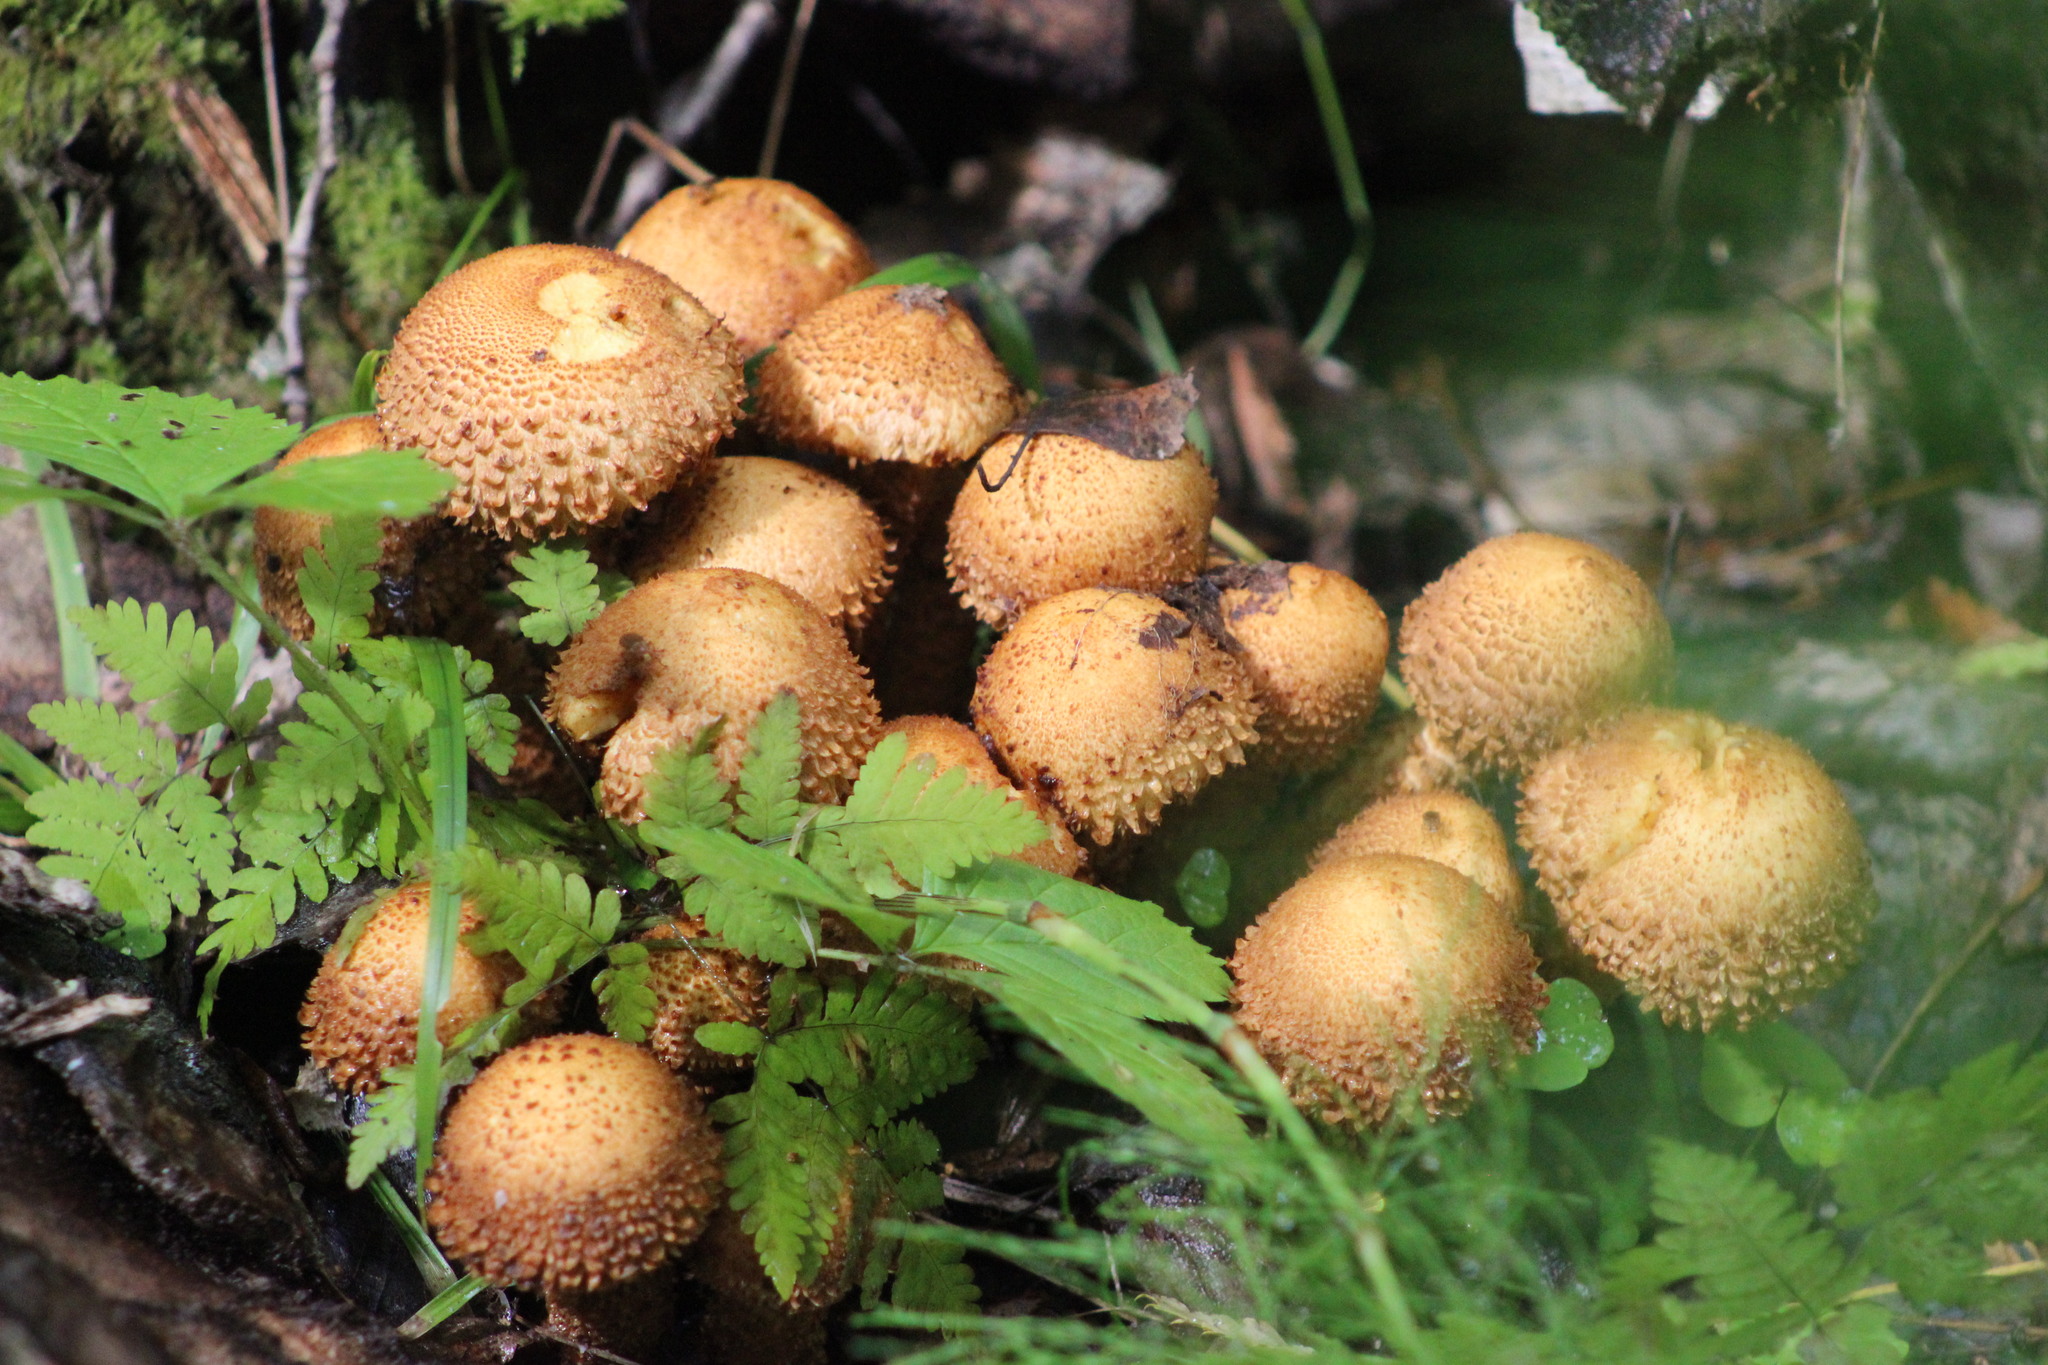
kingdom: Fungi
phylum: Basidiomycota
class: Agaricomycetes
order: Agaricales
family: Strophariaceae
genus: Pholiota
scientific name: Pholiota squarrosa
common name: Shaggy pholiota
